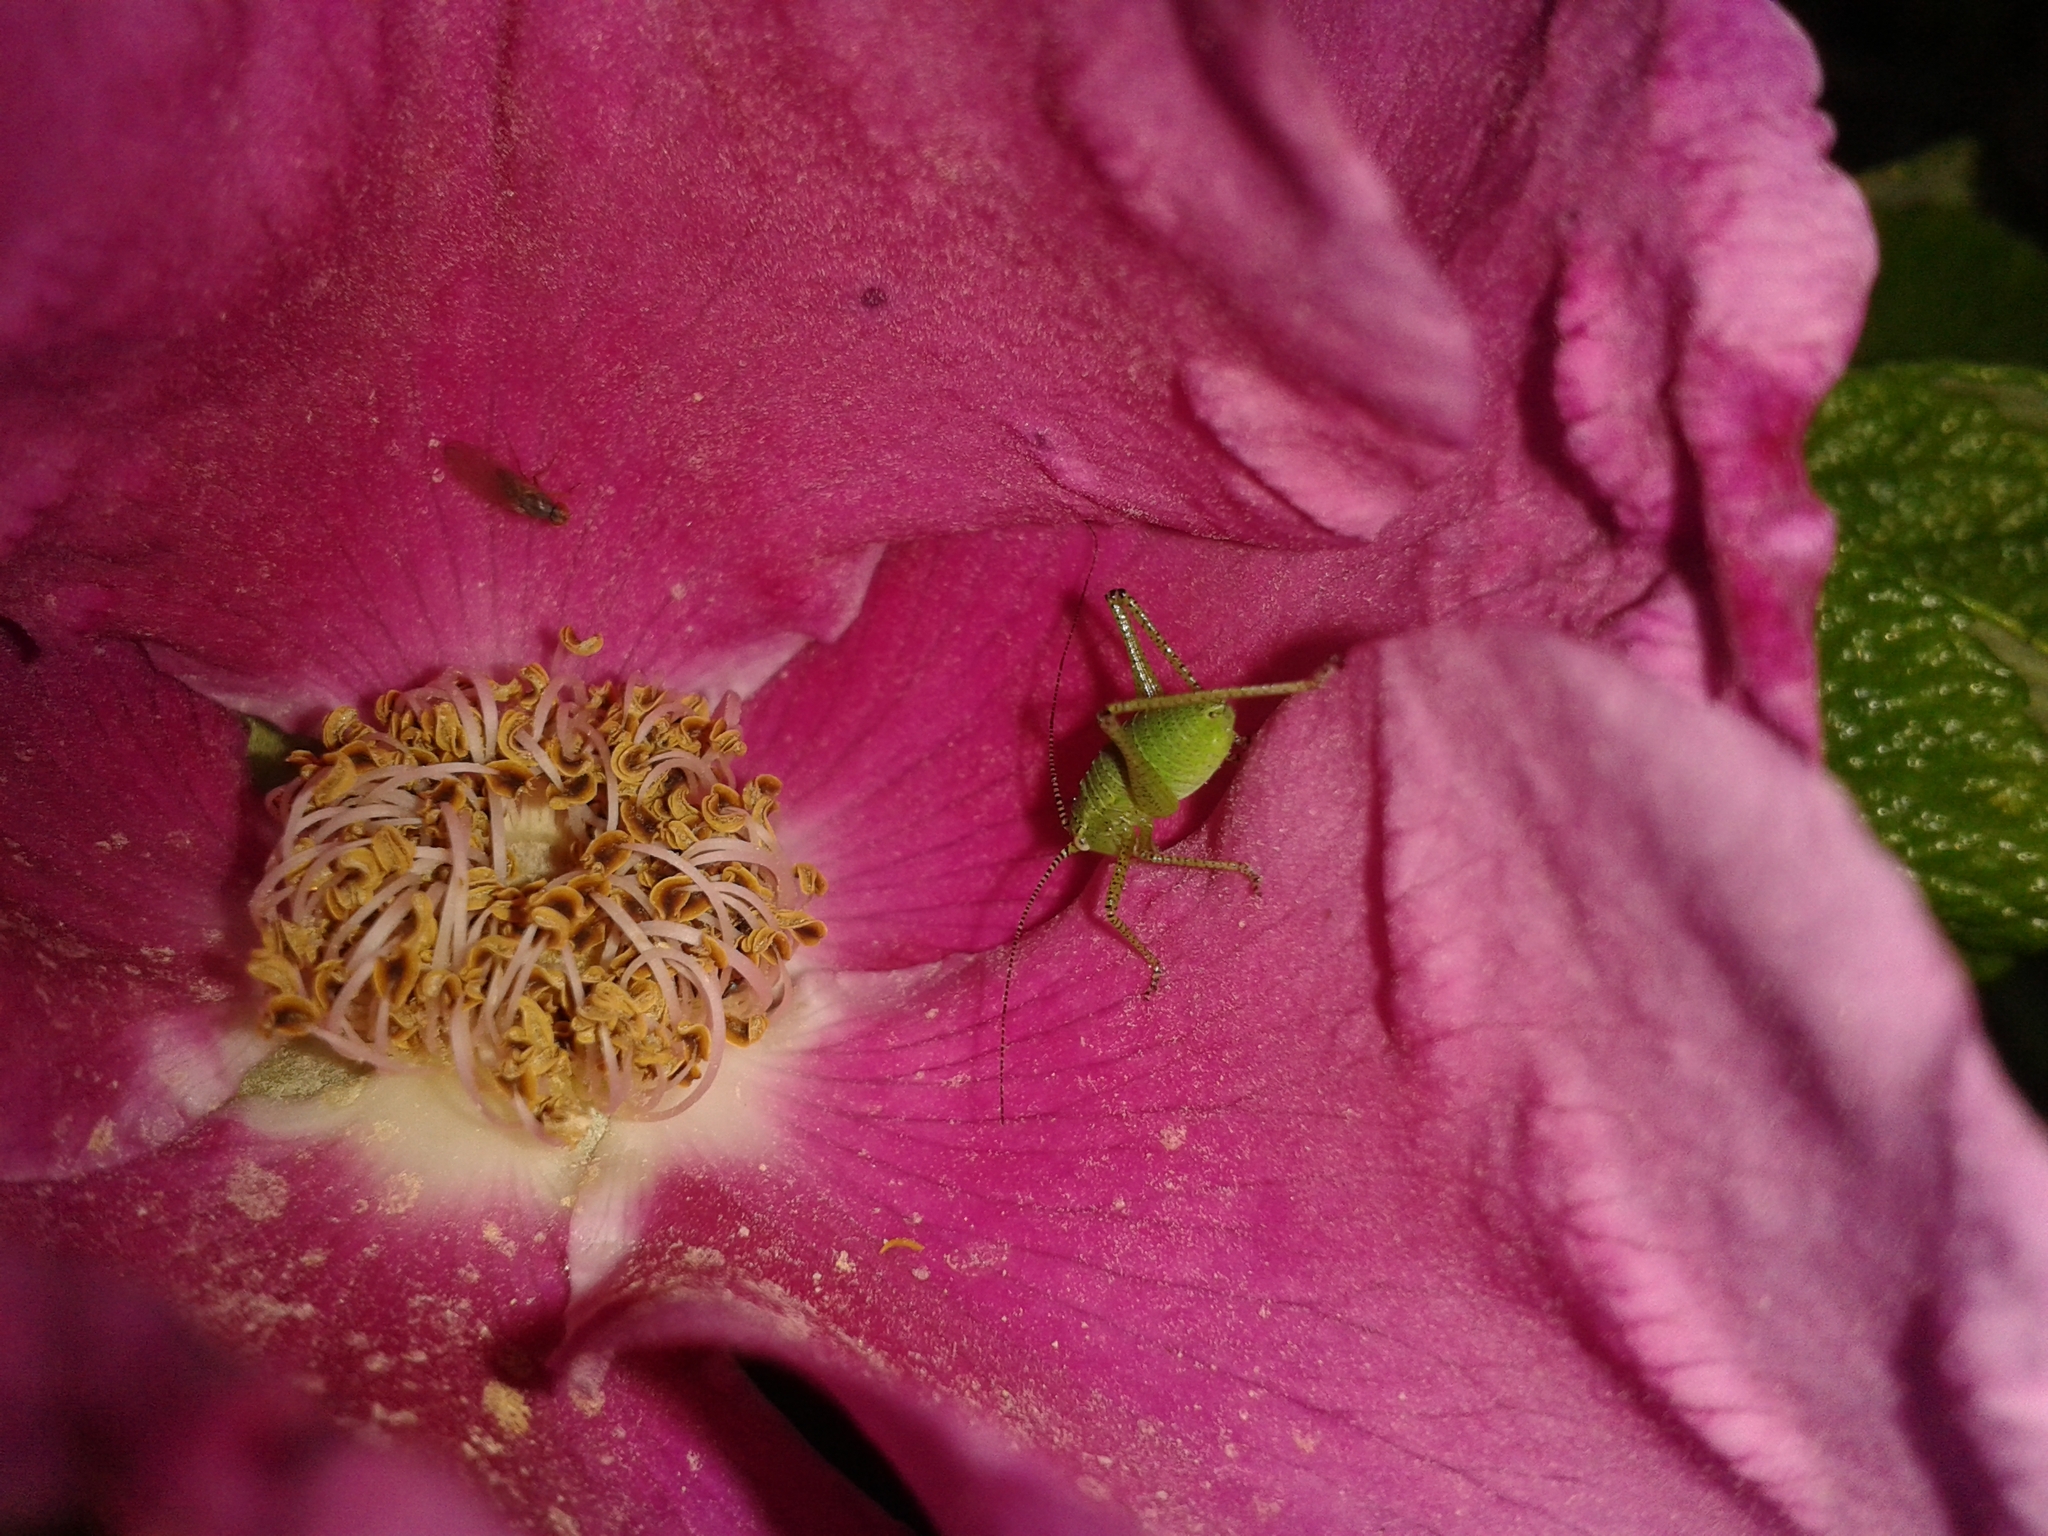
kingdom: Animalia
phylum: Arthropoda
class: Insecta
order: Orthoptera
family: Tettigoniidae
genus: Leptophyes
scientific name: Leptophyes punctatissima
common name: Speckled bush-cricket
